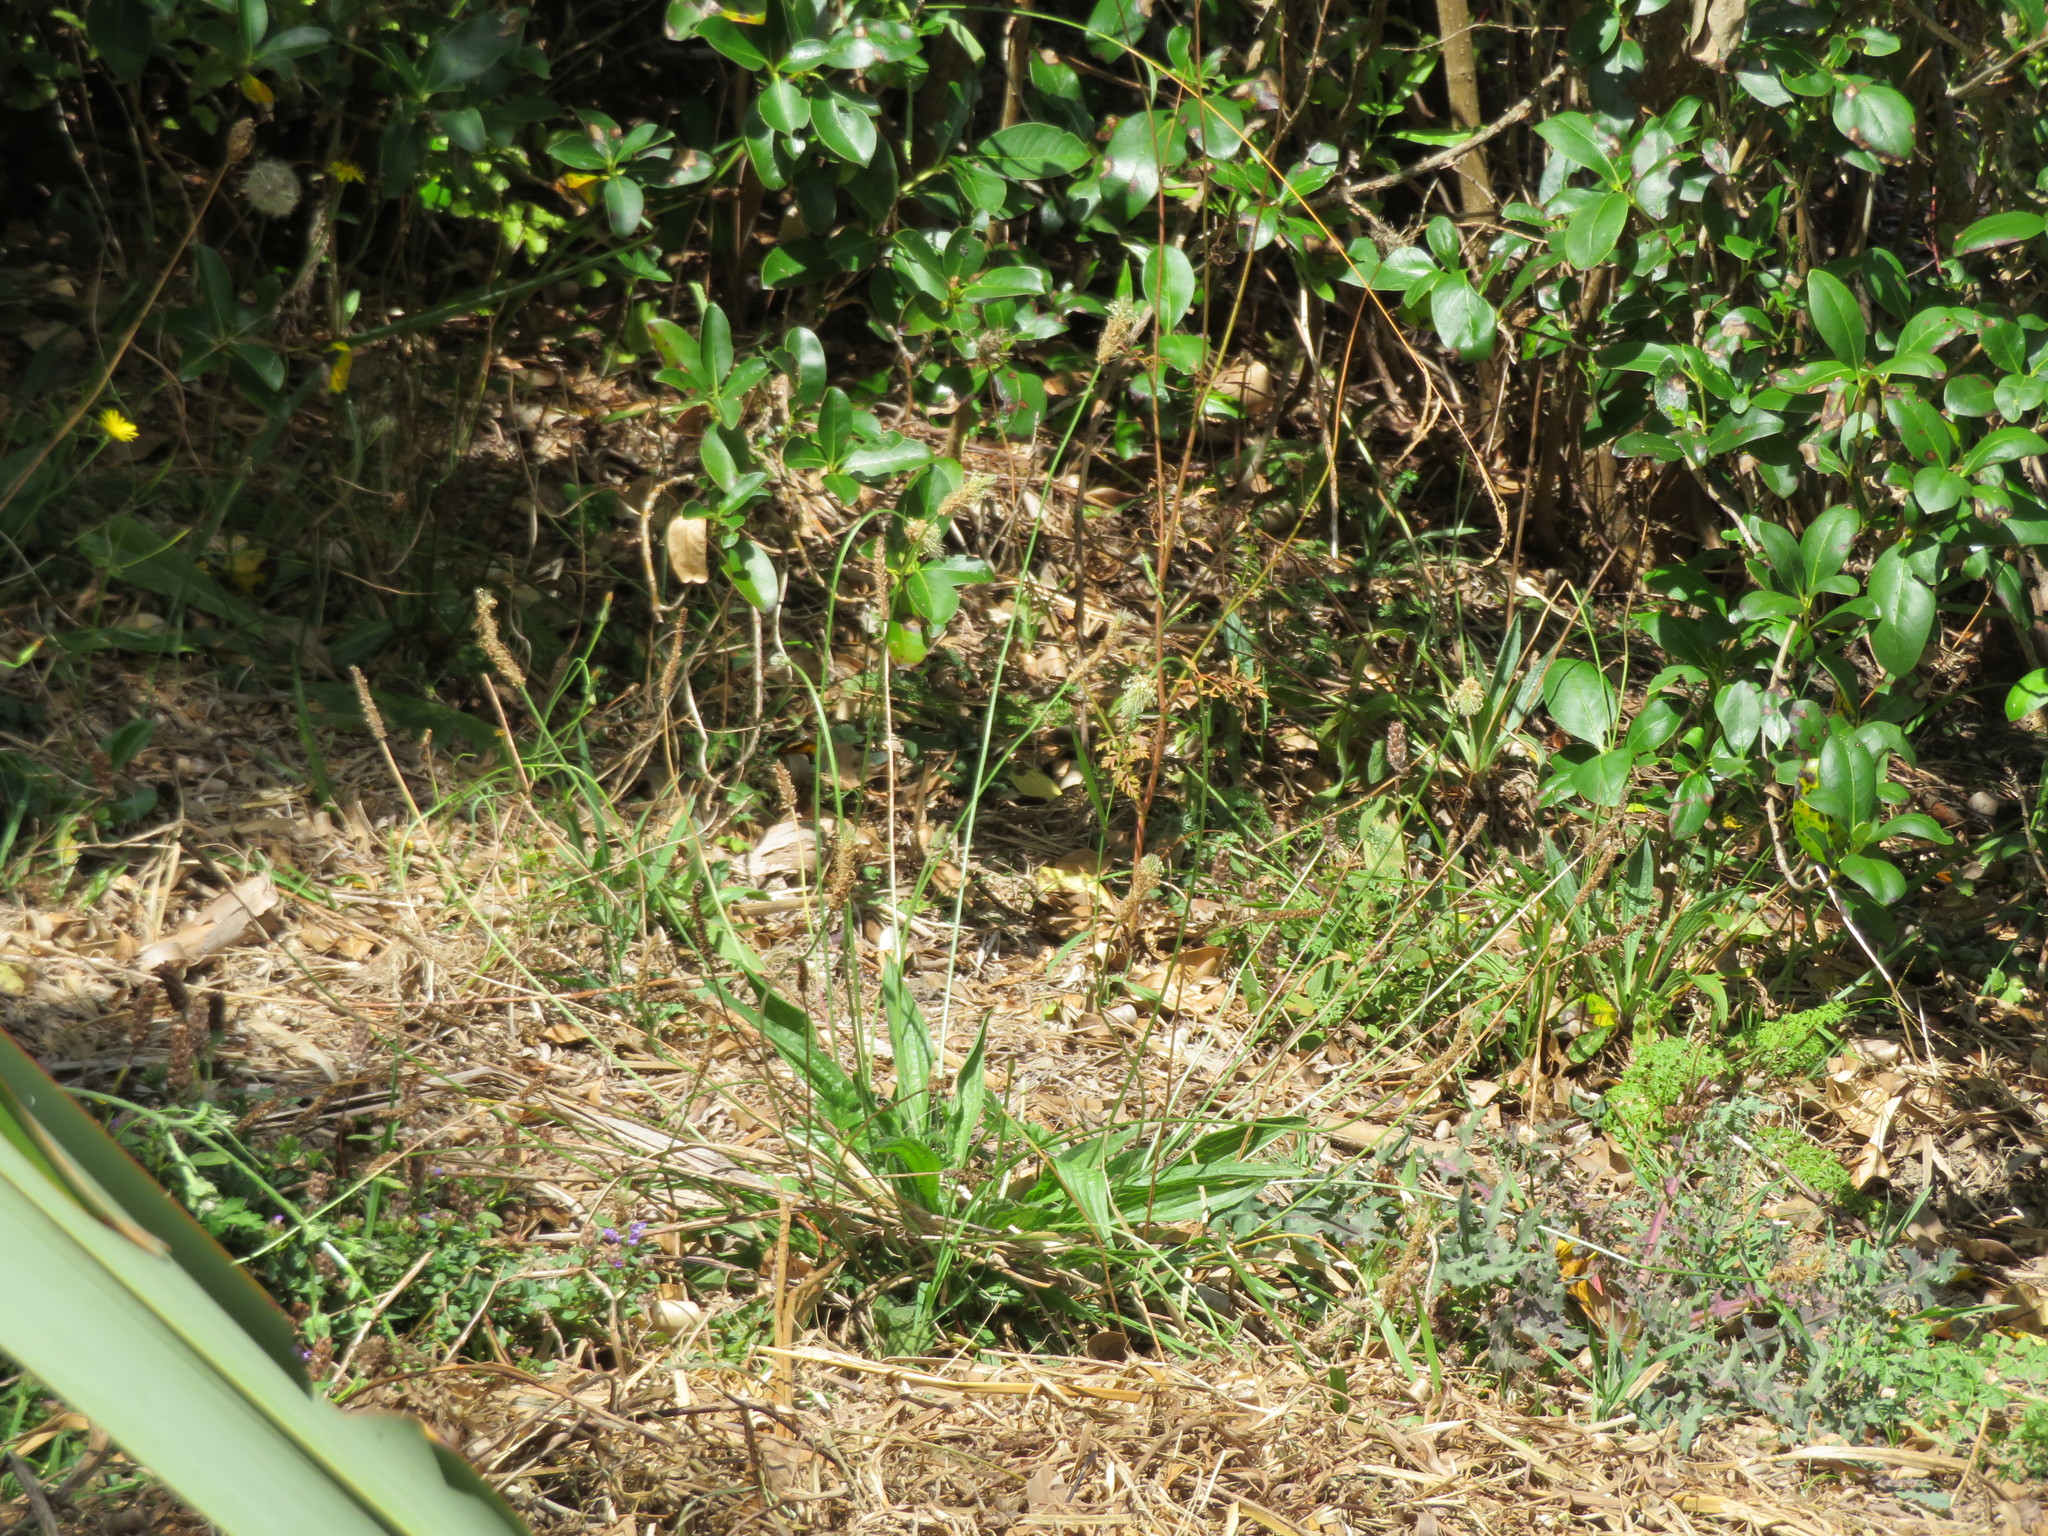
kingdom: Plantae
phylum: Tracheophyta
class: Magnoliopsida
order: Lamiales
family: Plantaginaceae
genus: Plantago
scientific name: Plantago lanceolata
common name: Ribwort plantain
